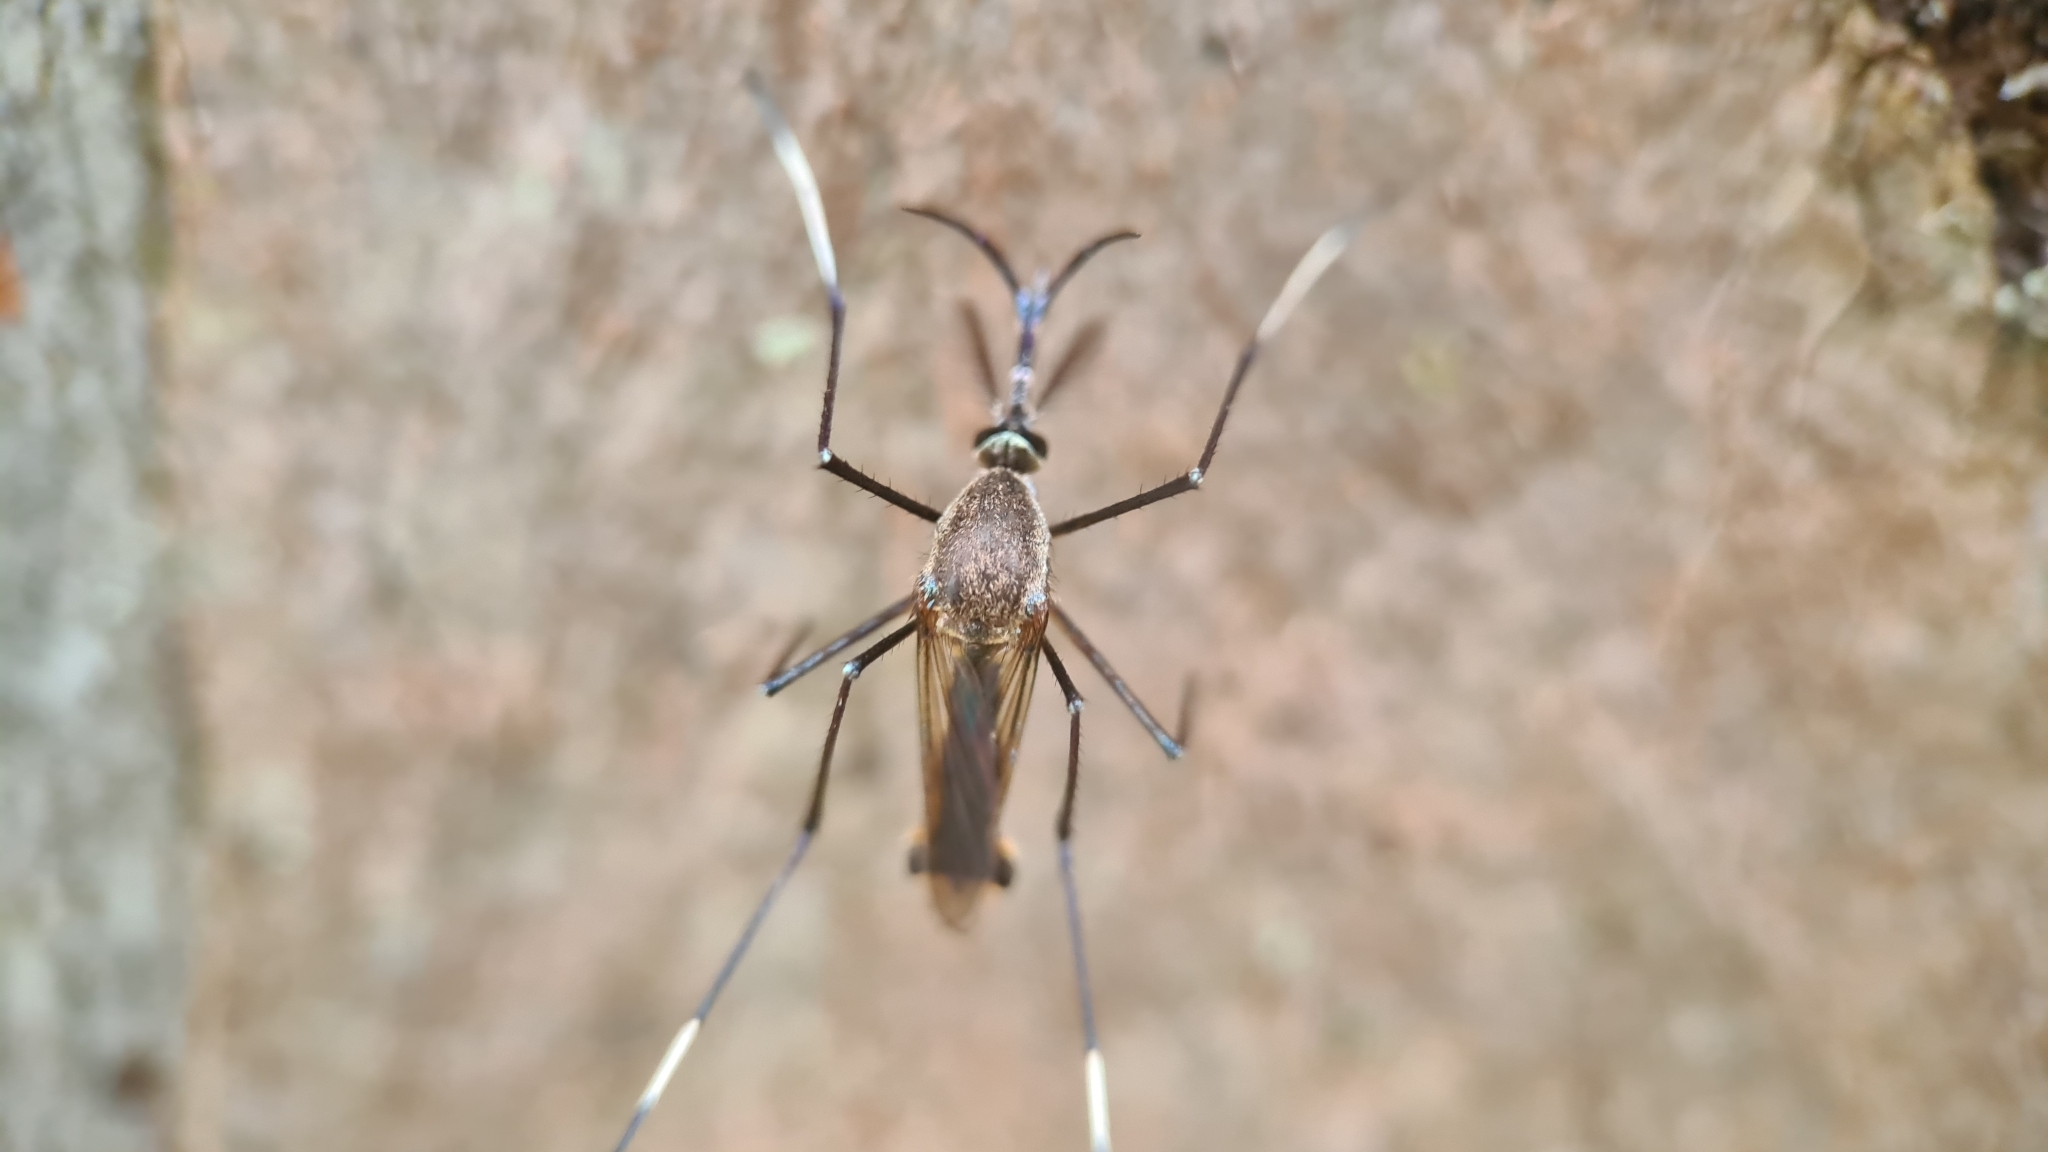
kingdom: Animalia
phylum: Arthropoda
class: Insecta
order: Diptera
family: Culicidae
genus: Toxorhynchites
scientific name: Toxorhynchites speciosus
